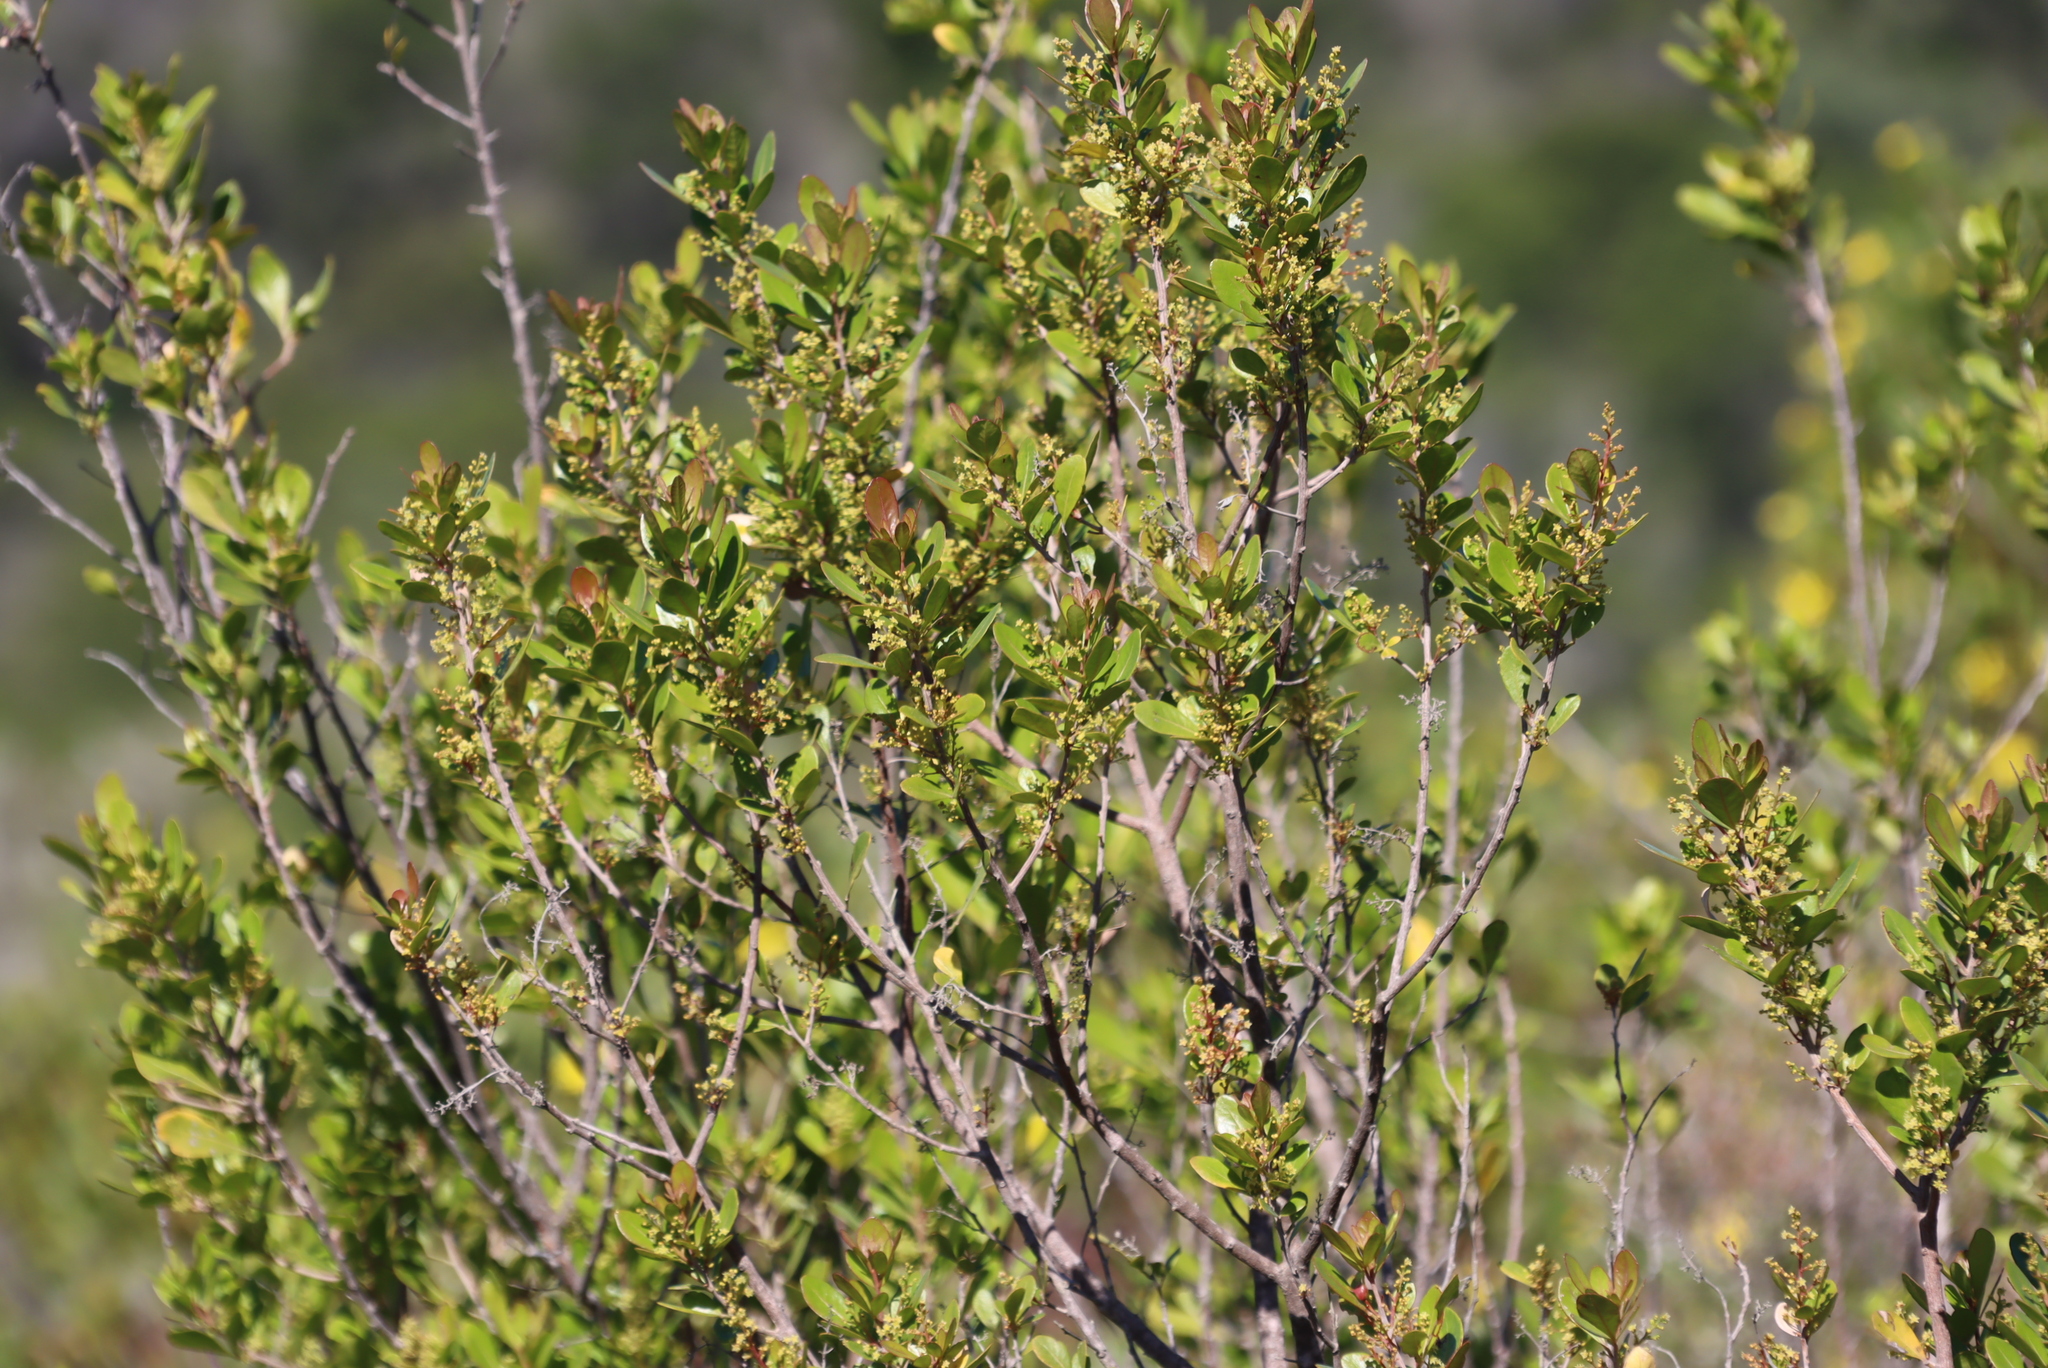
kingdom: Plantae
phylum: Tracheophyta
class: Magnoliopsida
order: Sapindales
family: Anacardiaceae
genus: Searsia
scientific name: Searsia lucida
